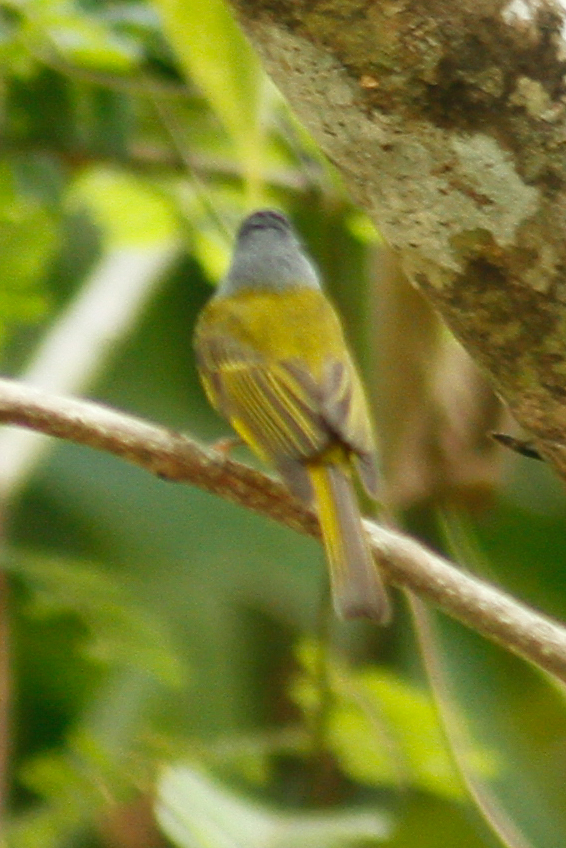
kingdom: Animalia
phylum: Chordata
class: Aves
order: Passeriformes
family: Stenostiridae
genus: Culicicapa
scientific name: Culicicapa ceylonensis
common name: Grey-headed canary-flycatcher
